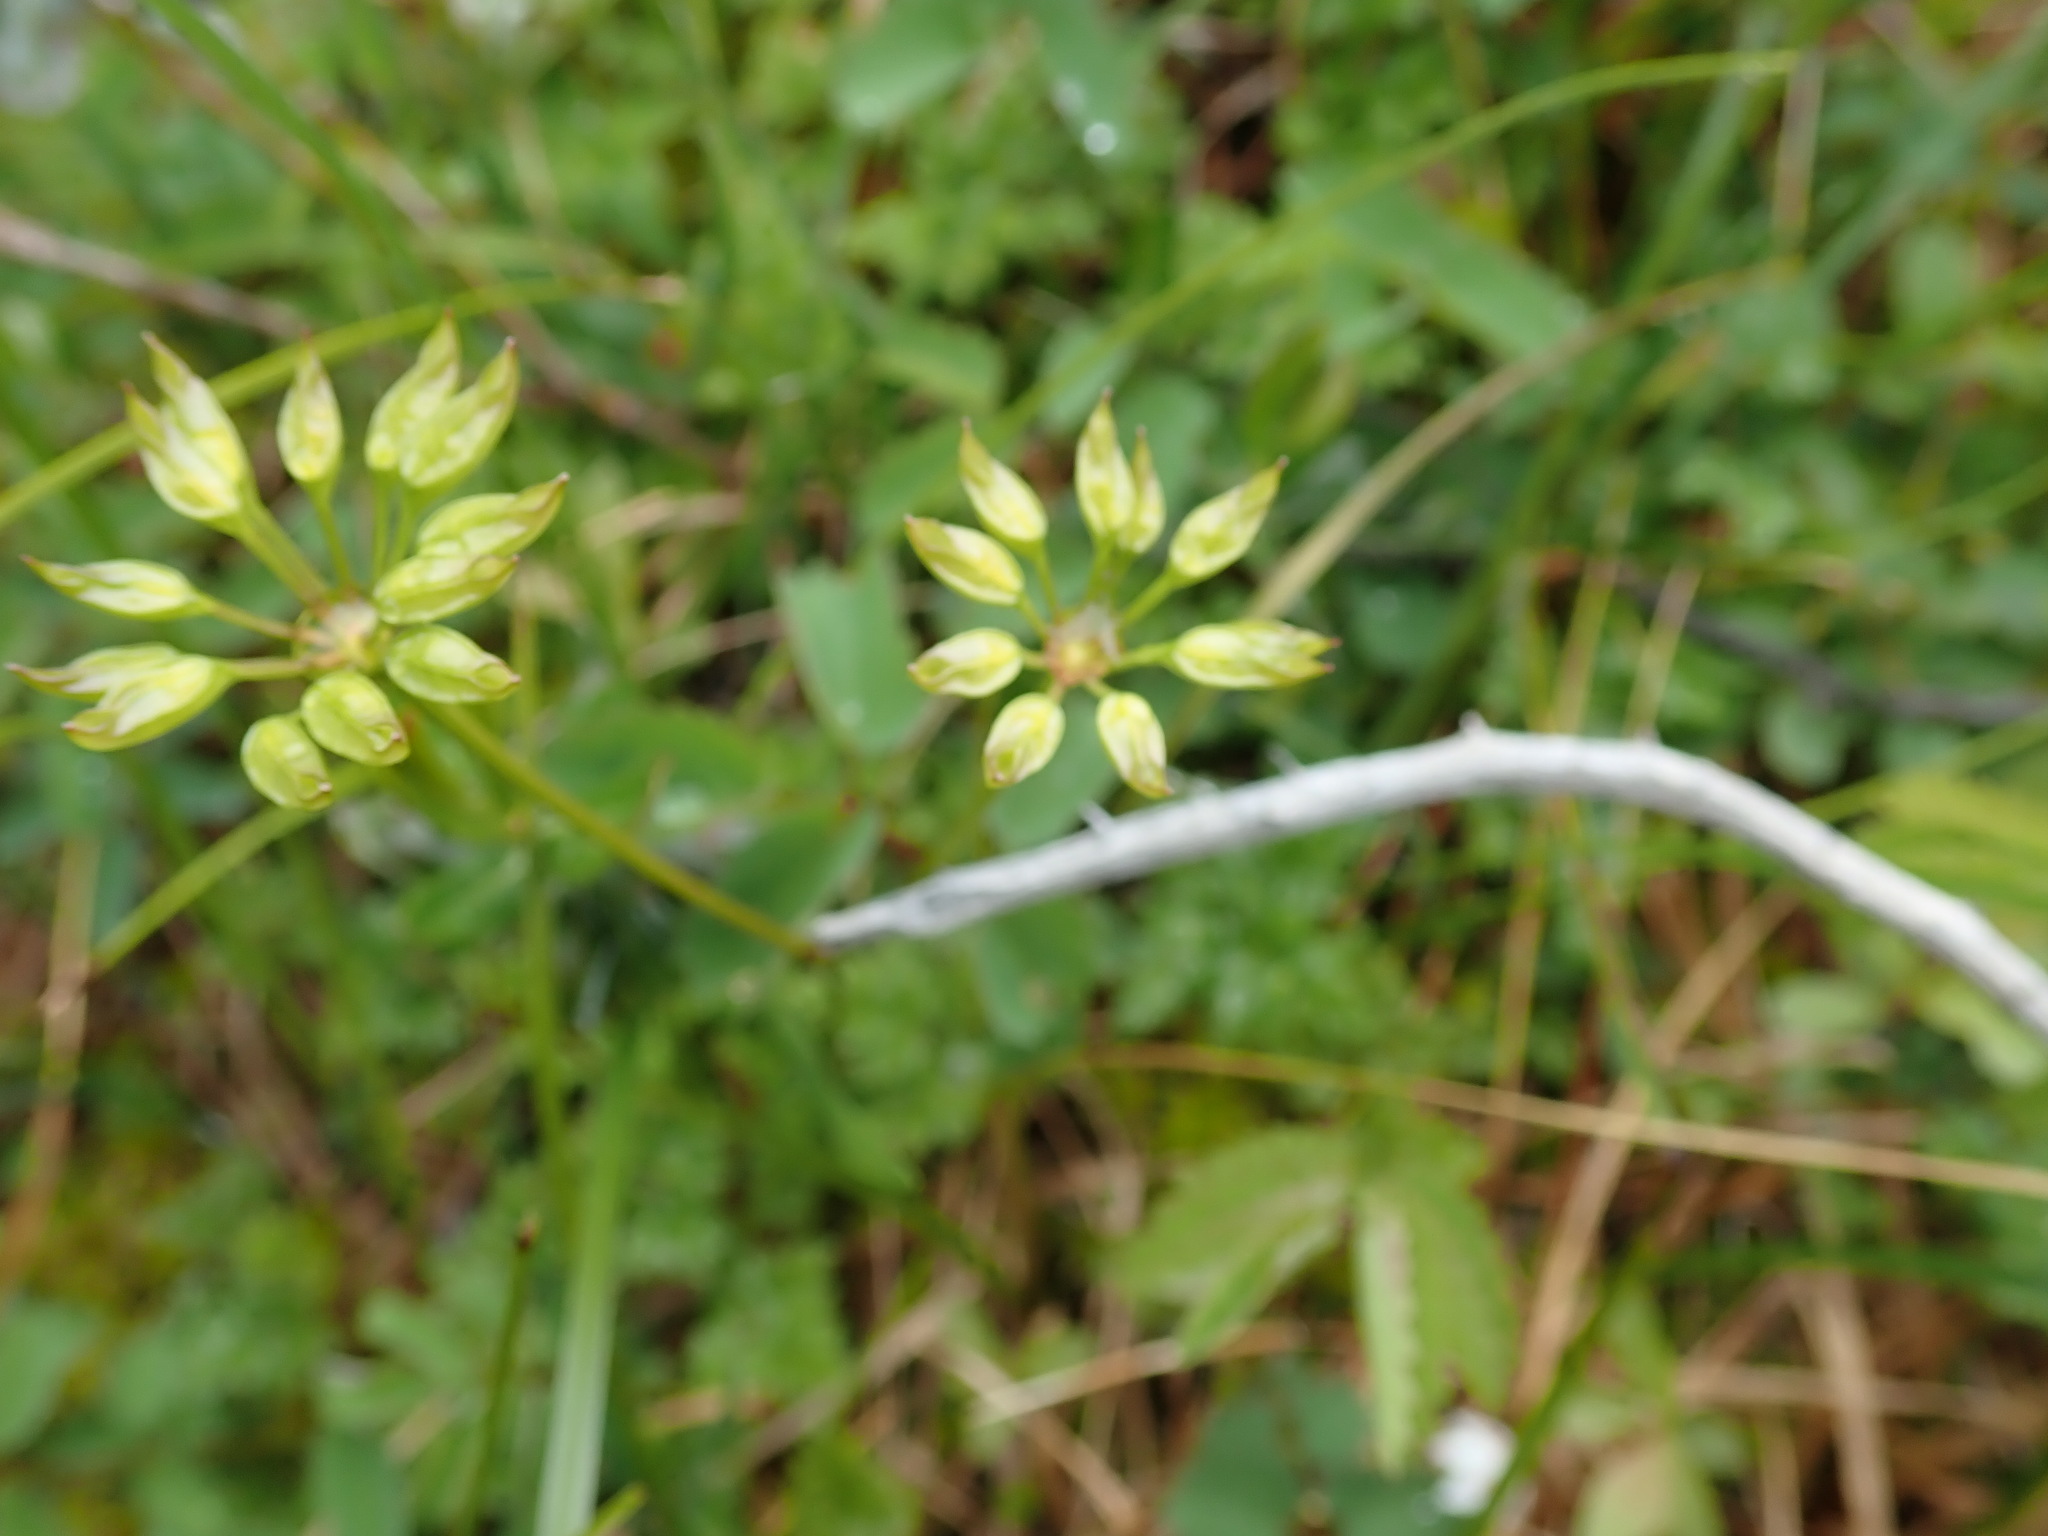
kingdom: Plantae
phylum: Tracheophyta
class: Magnoliopsida
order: Ranunculales
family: Ranunculaceae
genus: Coptis
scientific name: Coptis aspleniifolia
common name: Fern-leaved goldthread
